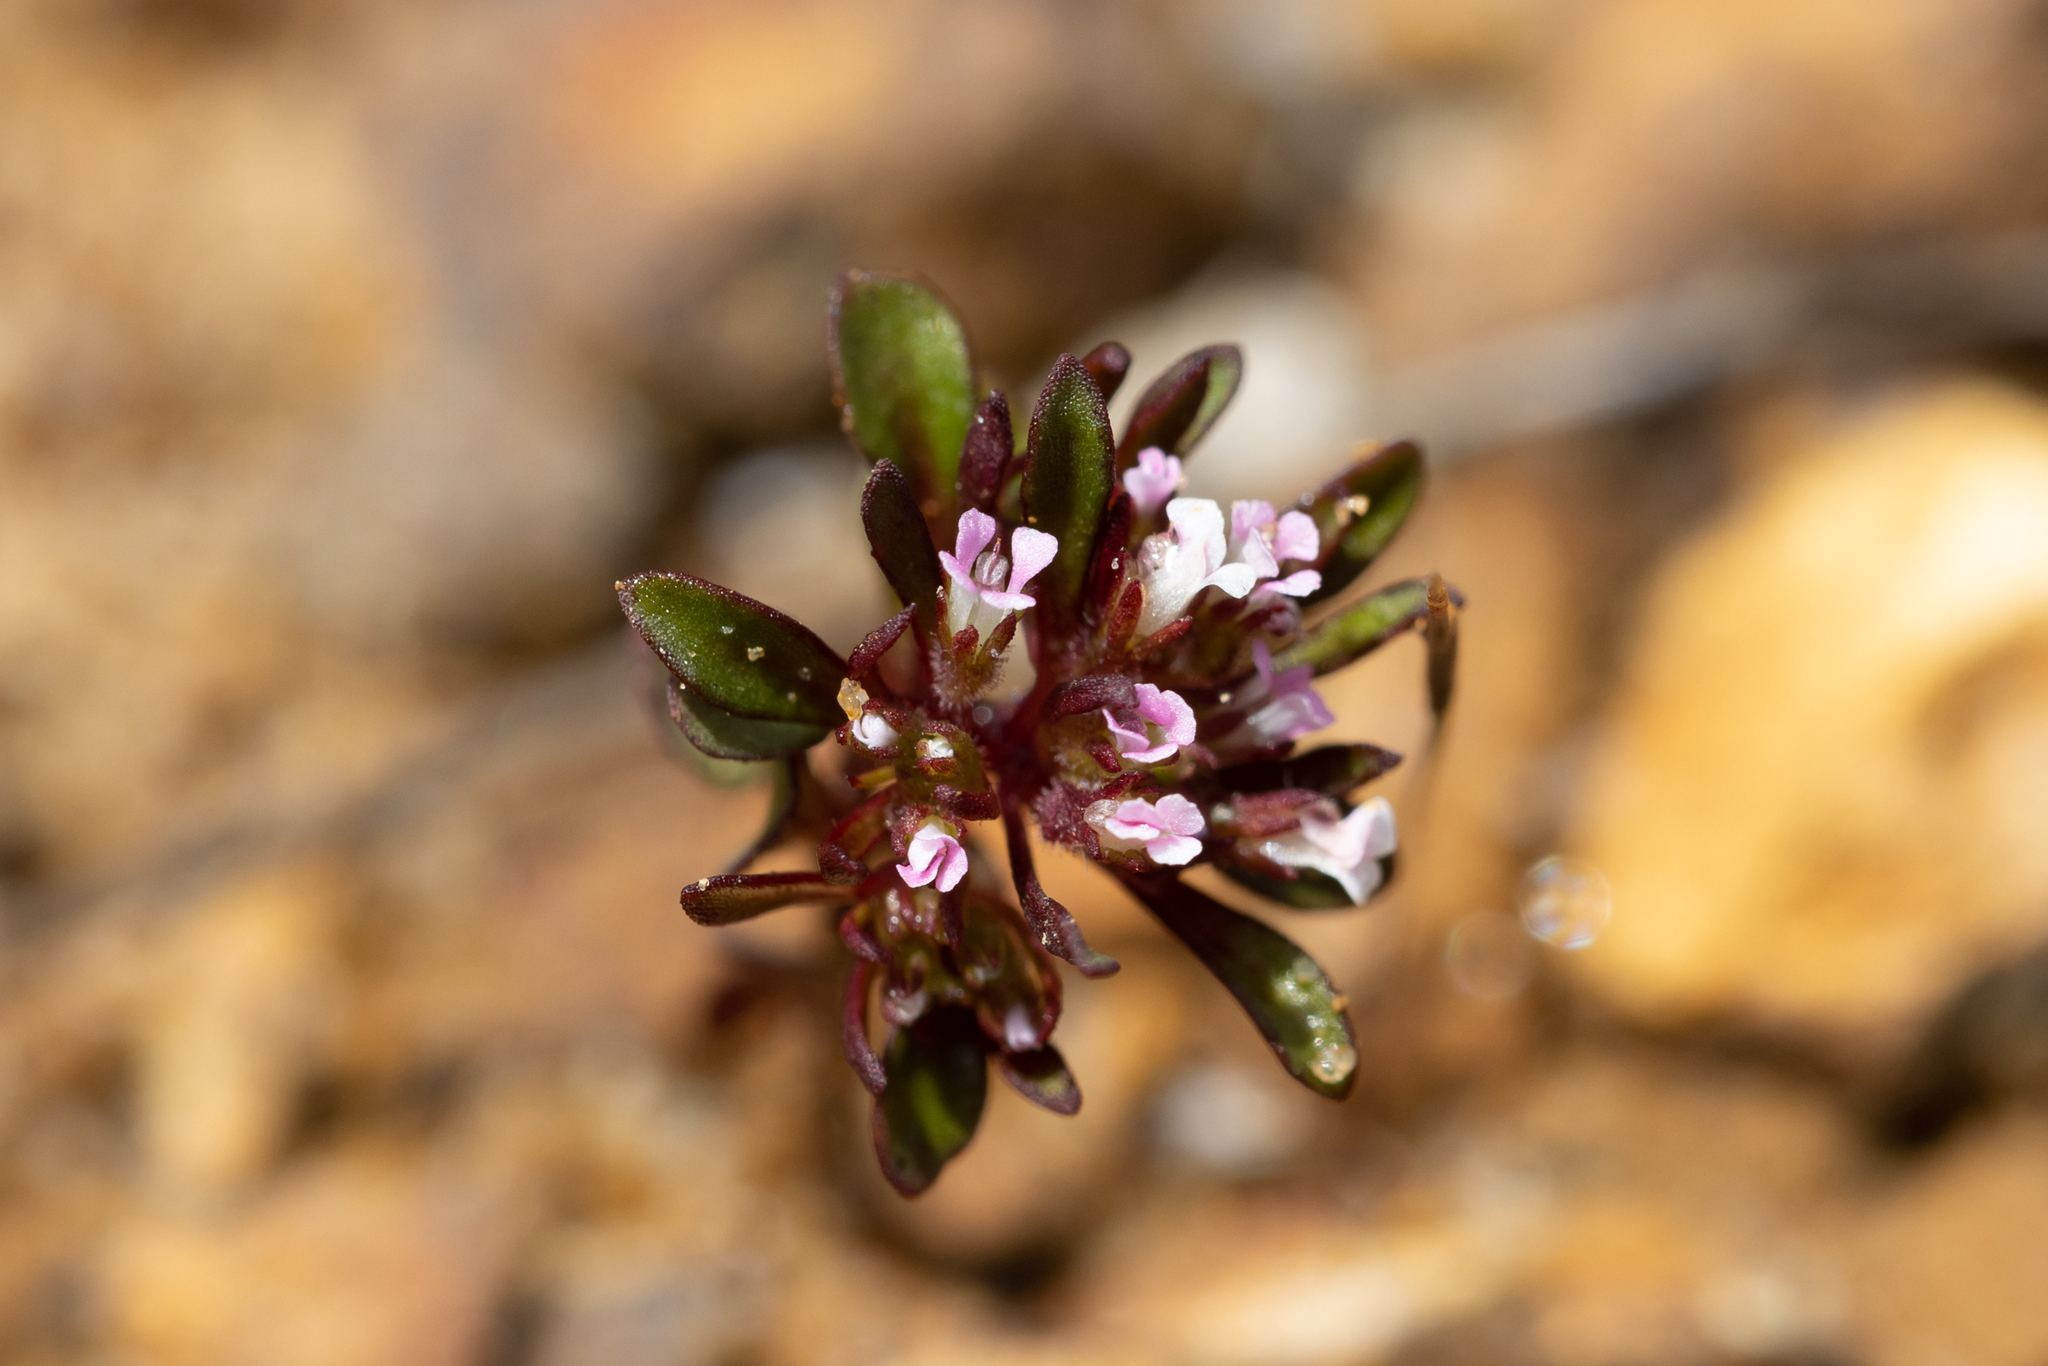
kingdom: Plantae
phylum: Tracheophyta
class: Magnoliopsida
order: Asterales
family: Stylidiaceae
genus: Levenhookia
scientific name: Levenhookia pusilla
